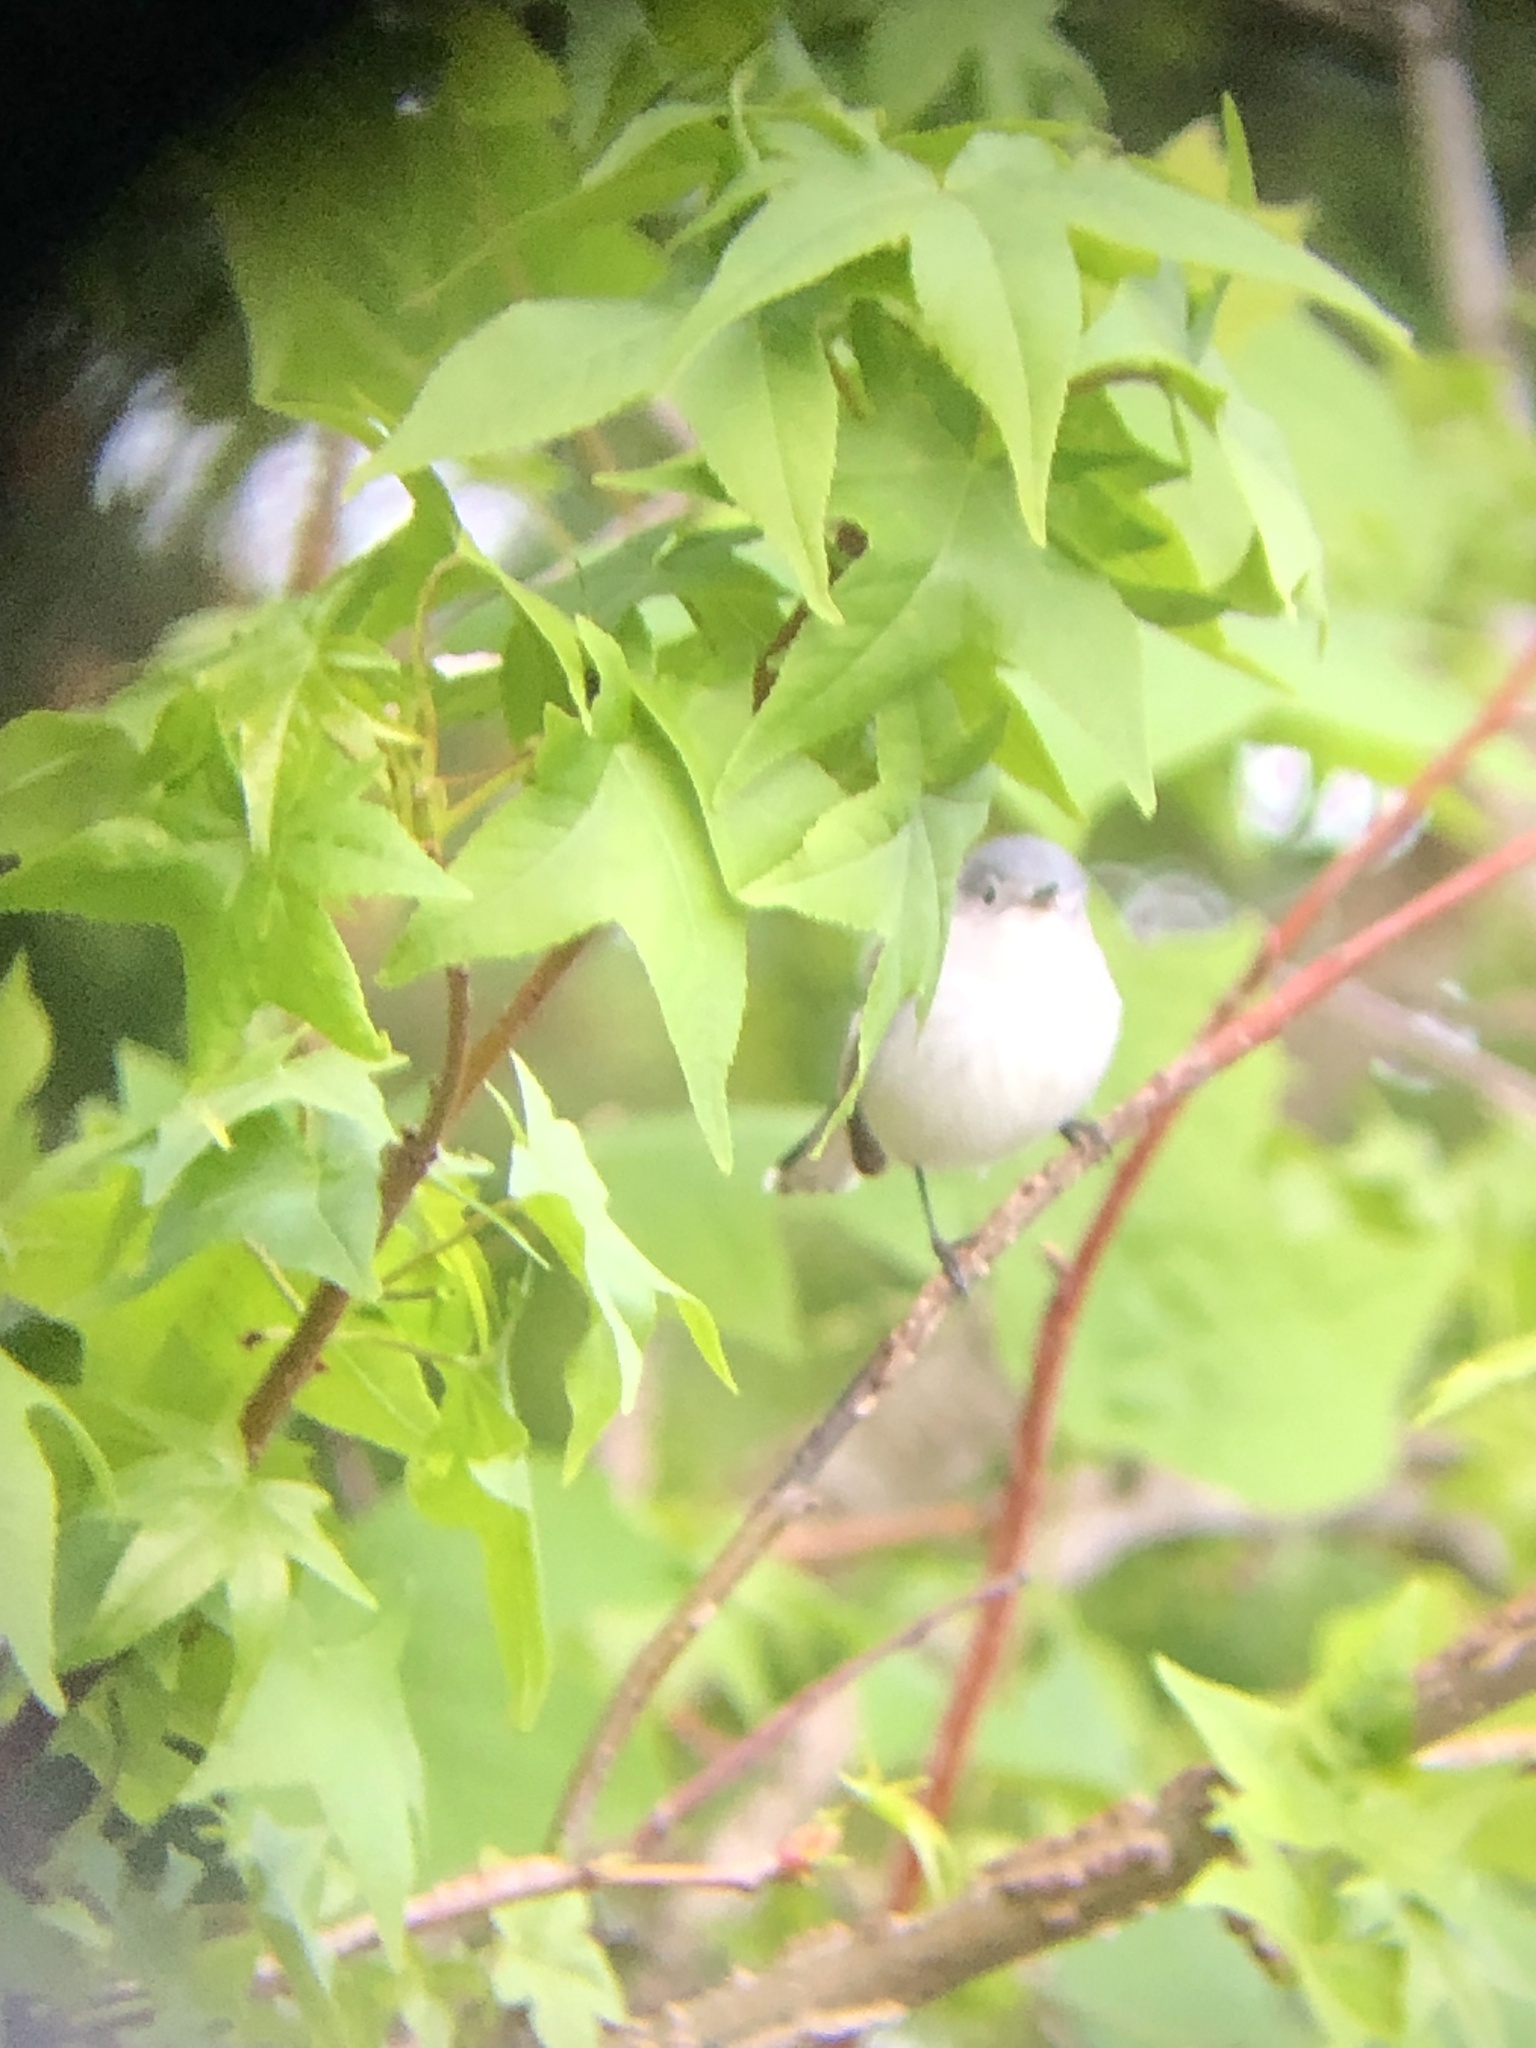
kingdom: Animalia
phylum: Chordata
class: Aves
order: Passeriformes
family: Polioptilidae
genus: Polioptila
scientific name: Polioptila caerulea
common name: Blue-gray gnatcatcher
